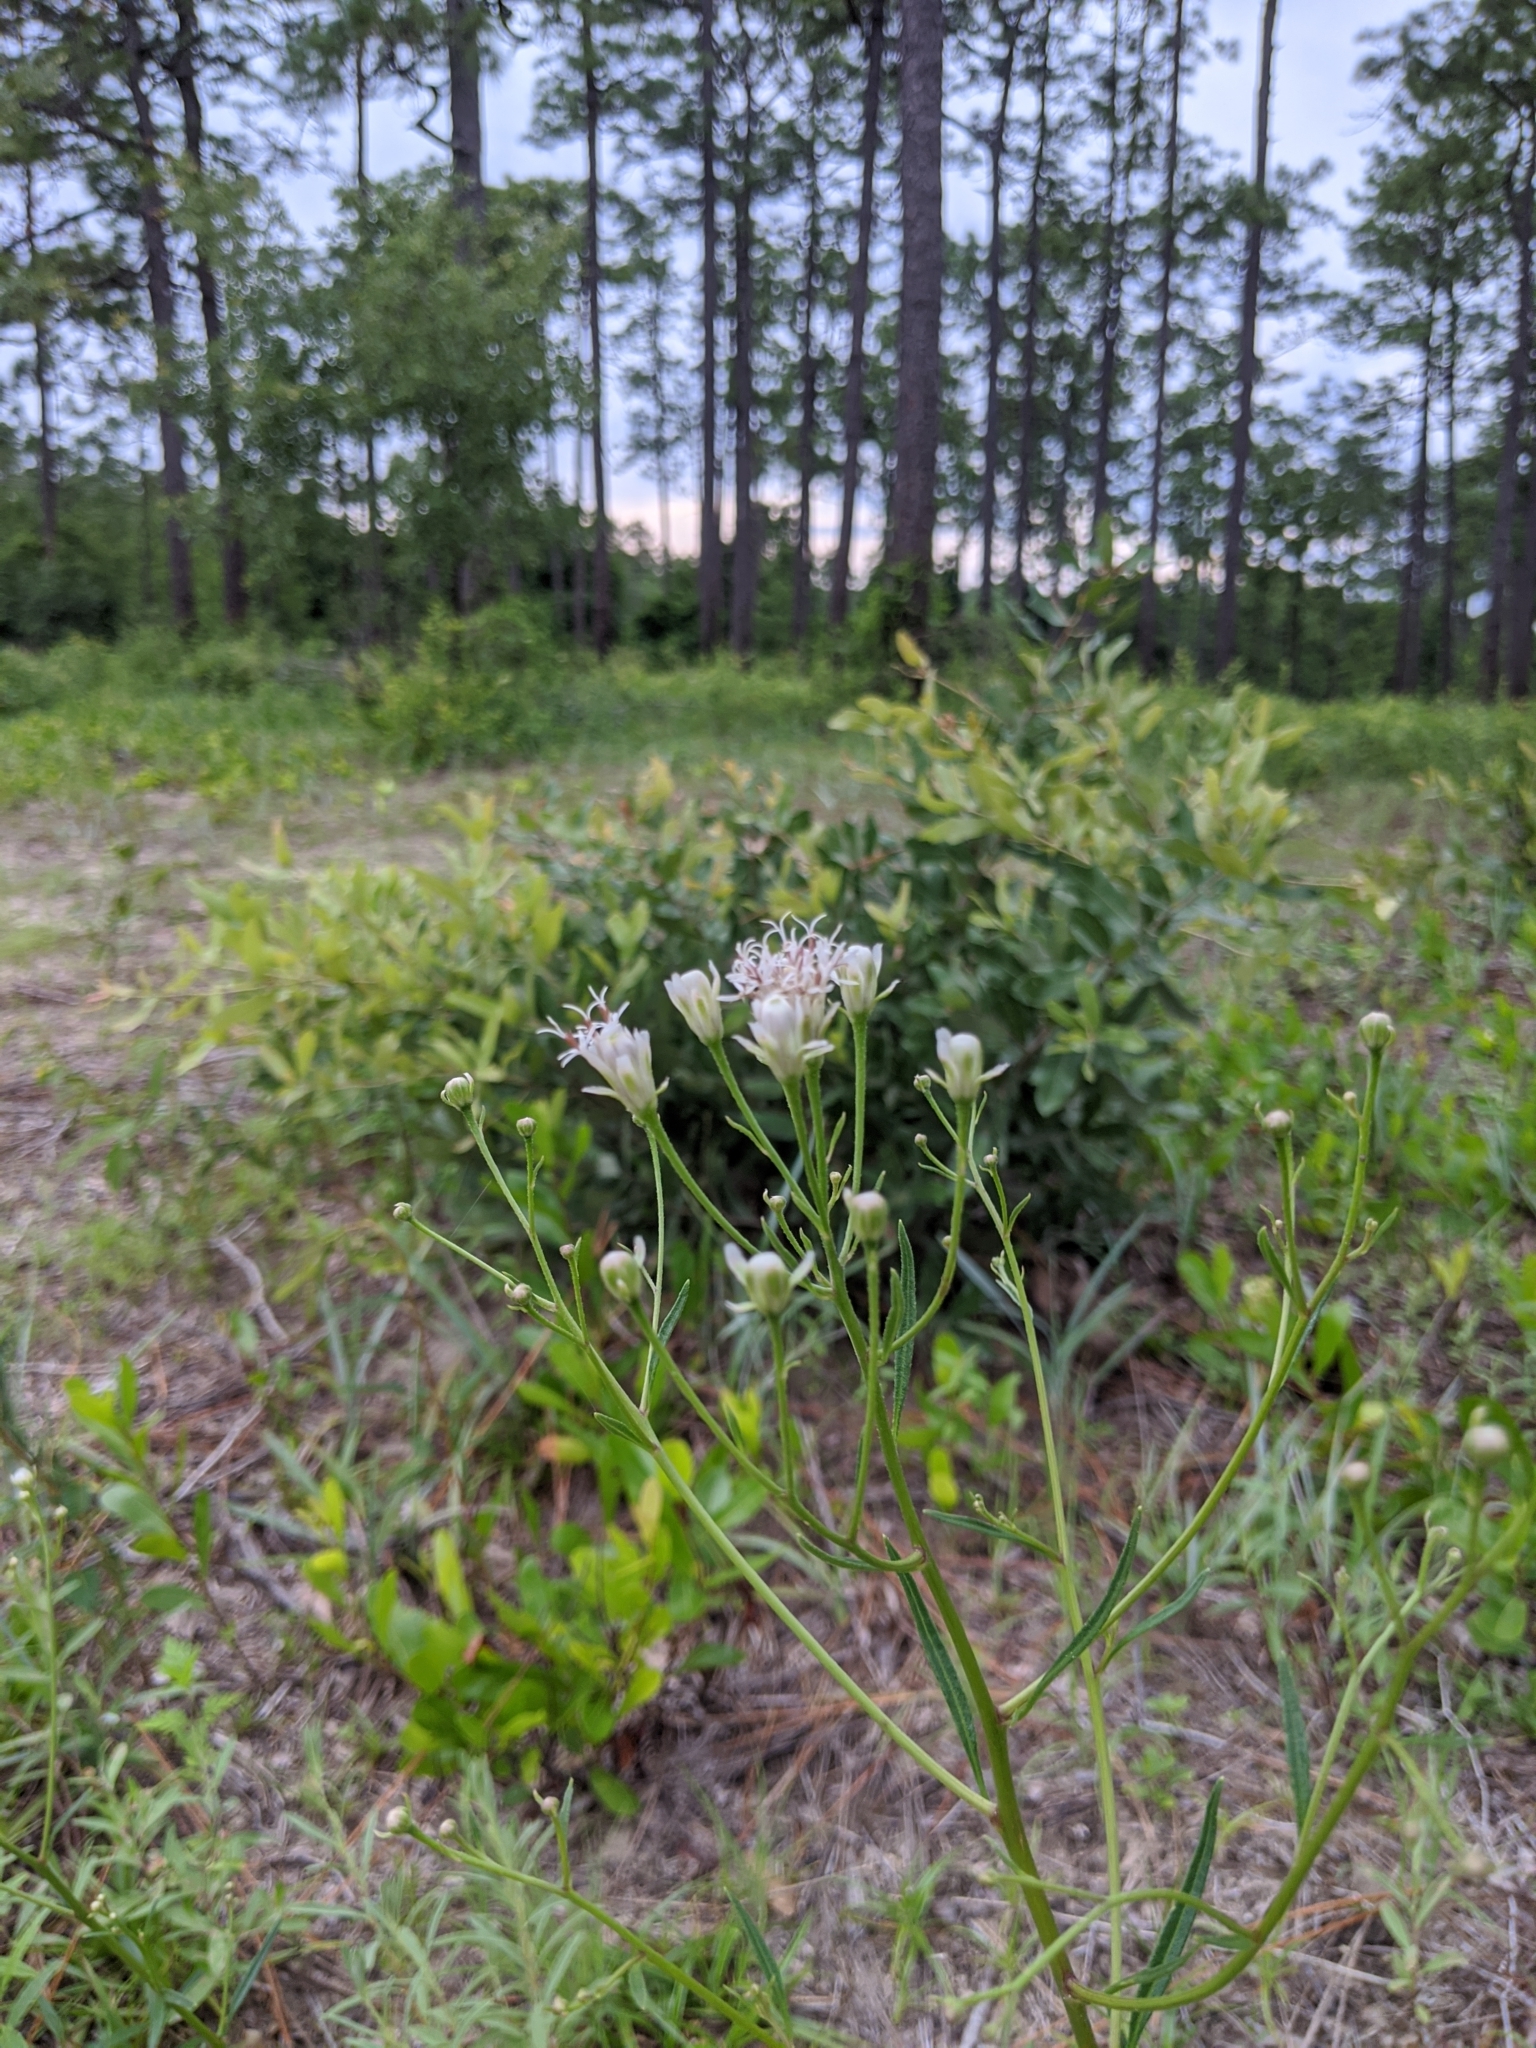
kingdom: Plantae
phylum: Tracheophyta
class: Magnoliopsida
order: Asterales
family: Asteraceae
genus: Palafoxia
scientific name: Palafoxia integrifolia
